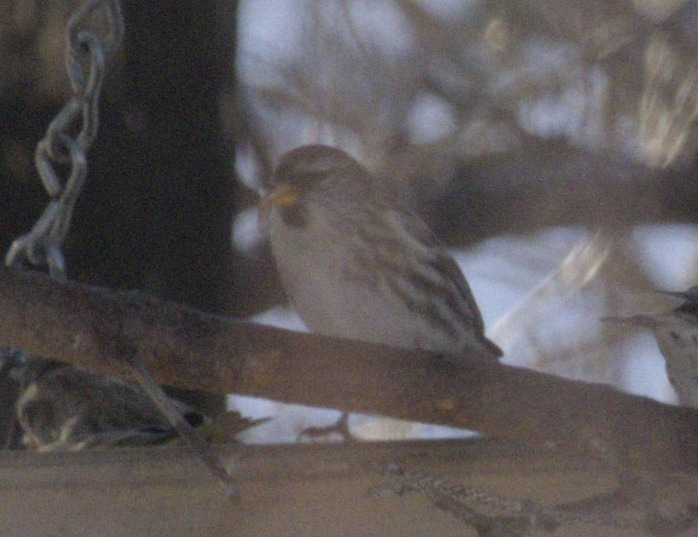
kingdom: Animalia
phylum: Chordata
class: Aves
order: Passeriformes
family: Fringillidae
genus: Acanthis
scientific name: Acanthis flammea
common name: Common redpoll
